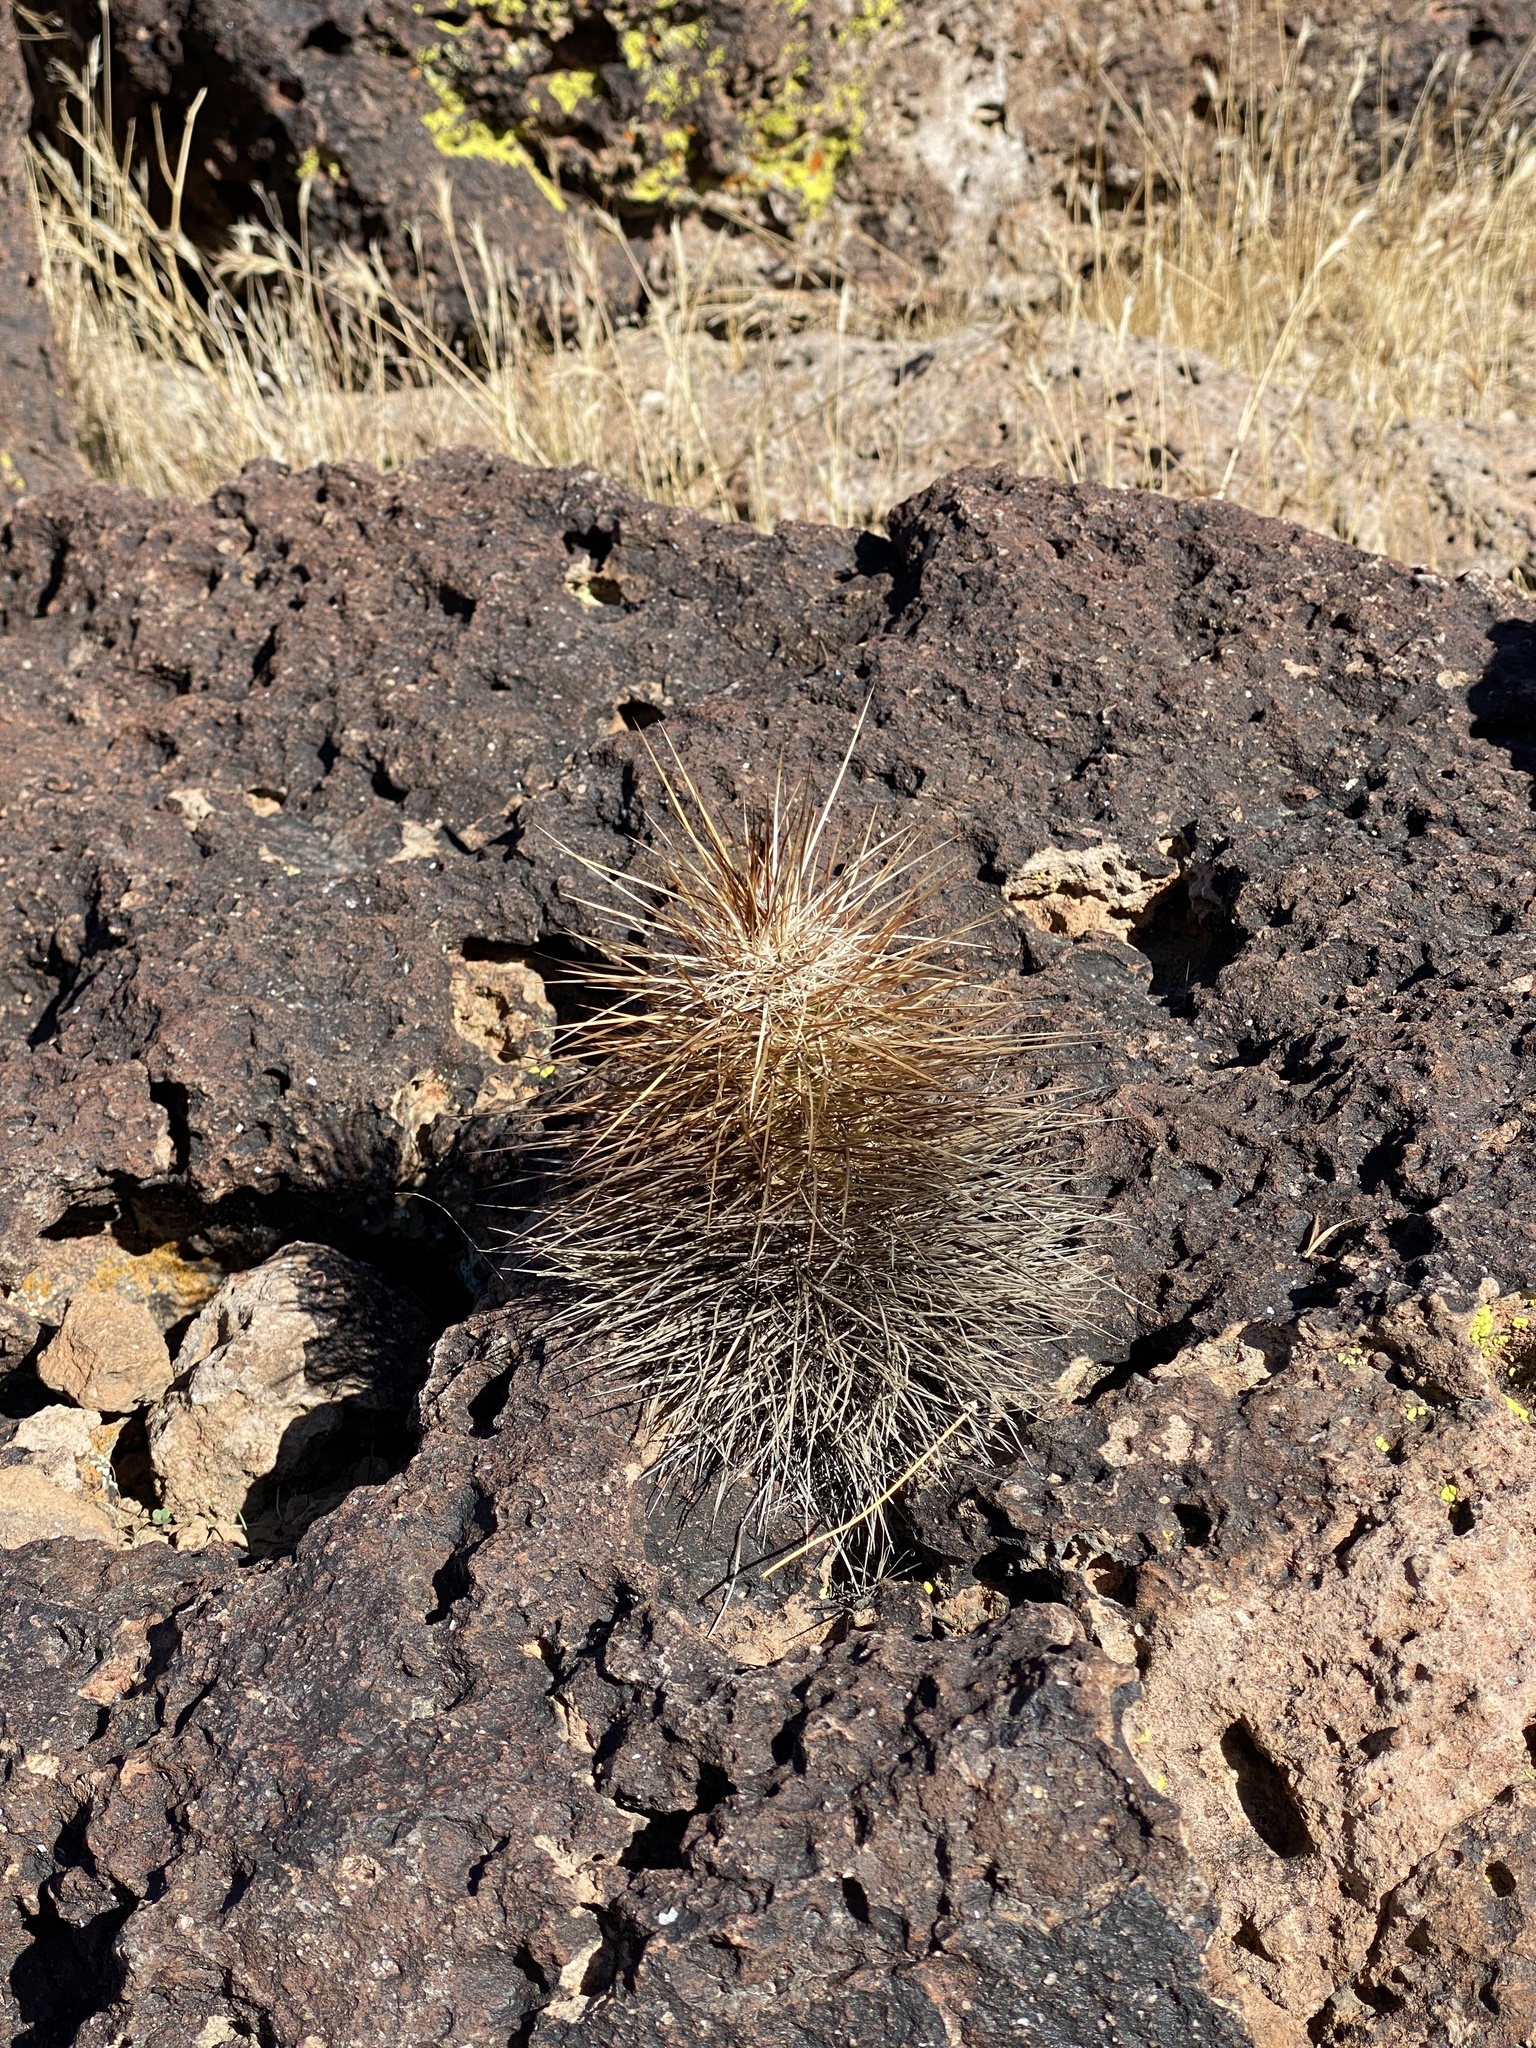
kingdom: Plantae
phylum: Tracheophyta
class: Magnoliopsida
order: Caryophyllales
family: Cactaceae
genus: Echinocereus
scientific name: Echinocereus engelmannii
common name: Engelmann's hedgehog cactus
